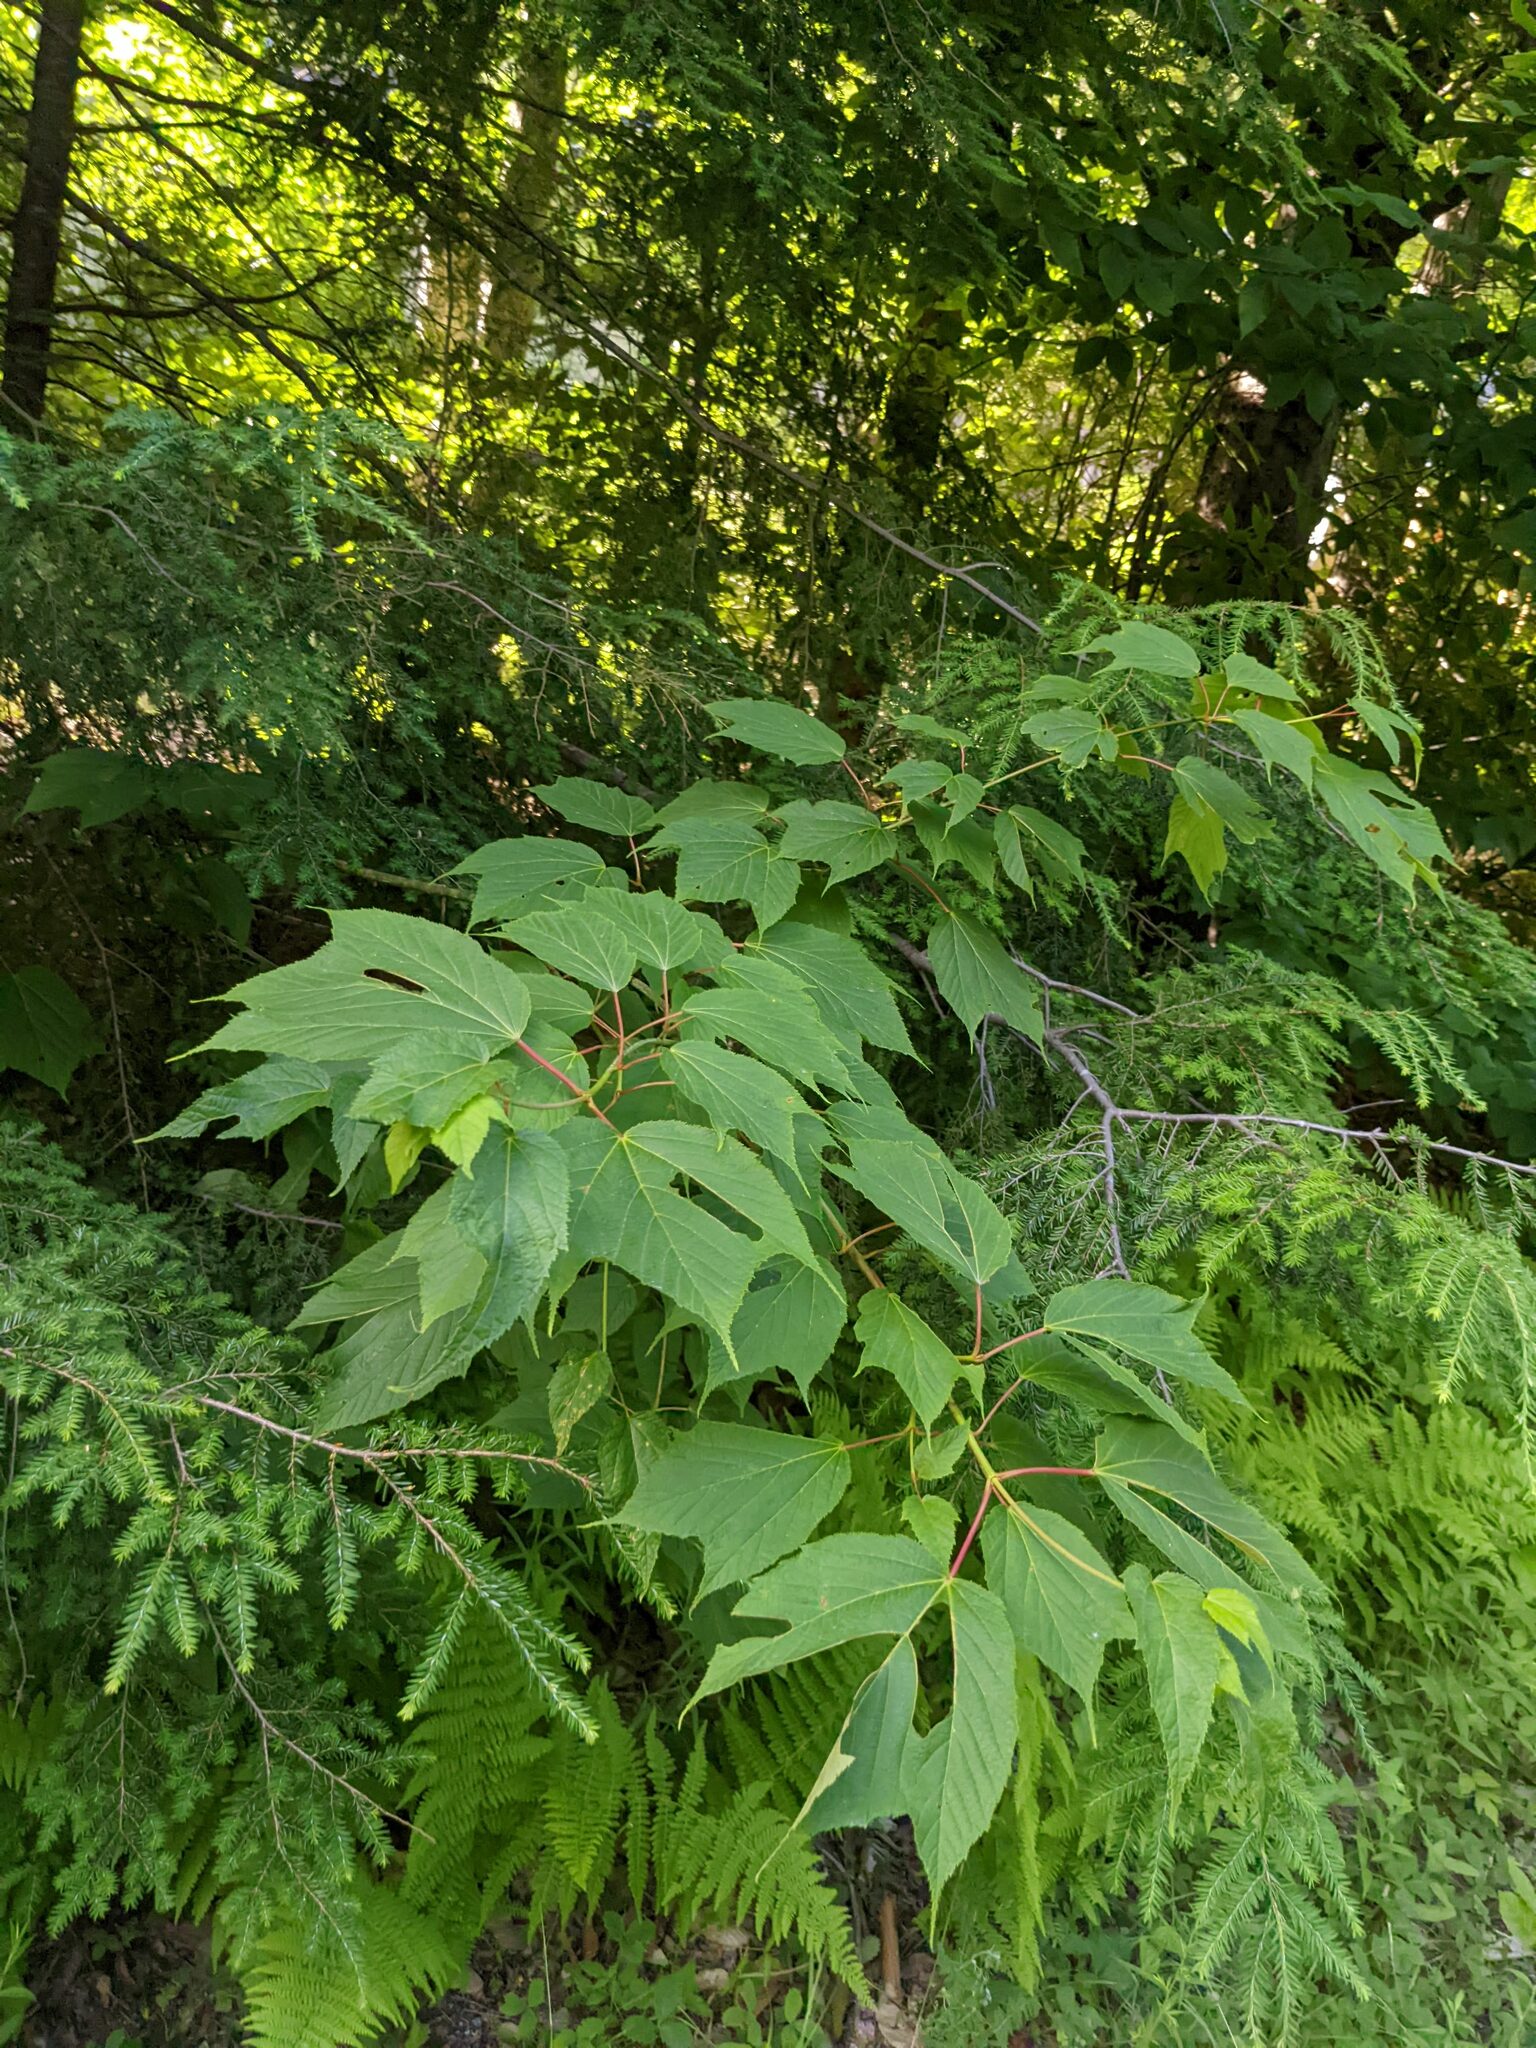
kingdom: Plantae
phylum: Tracheophyta
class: Magnoliopsida
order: Sapindales
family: Sapindaceae
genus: Acer
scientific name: Acer pensylvanicum
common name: Moosewood
